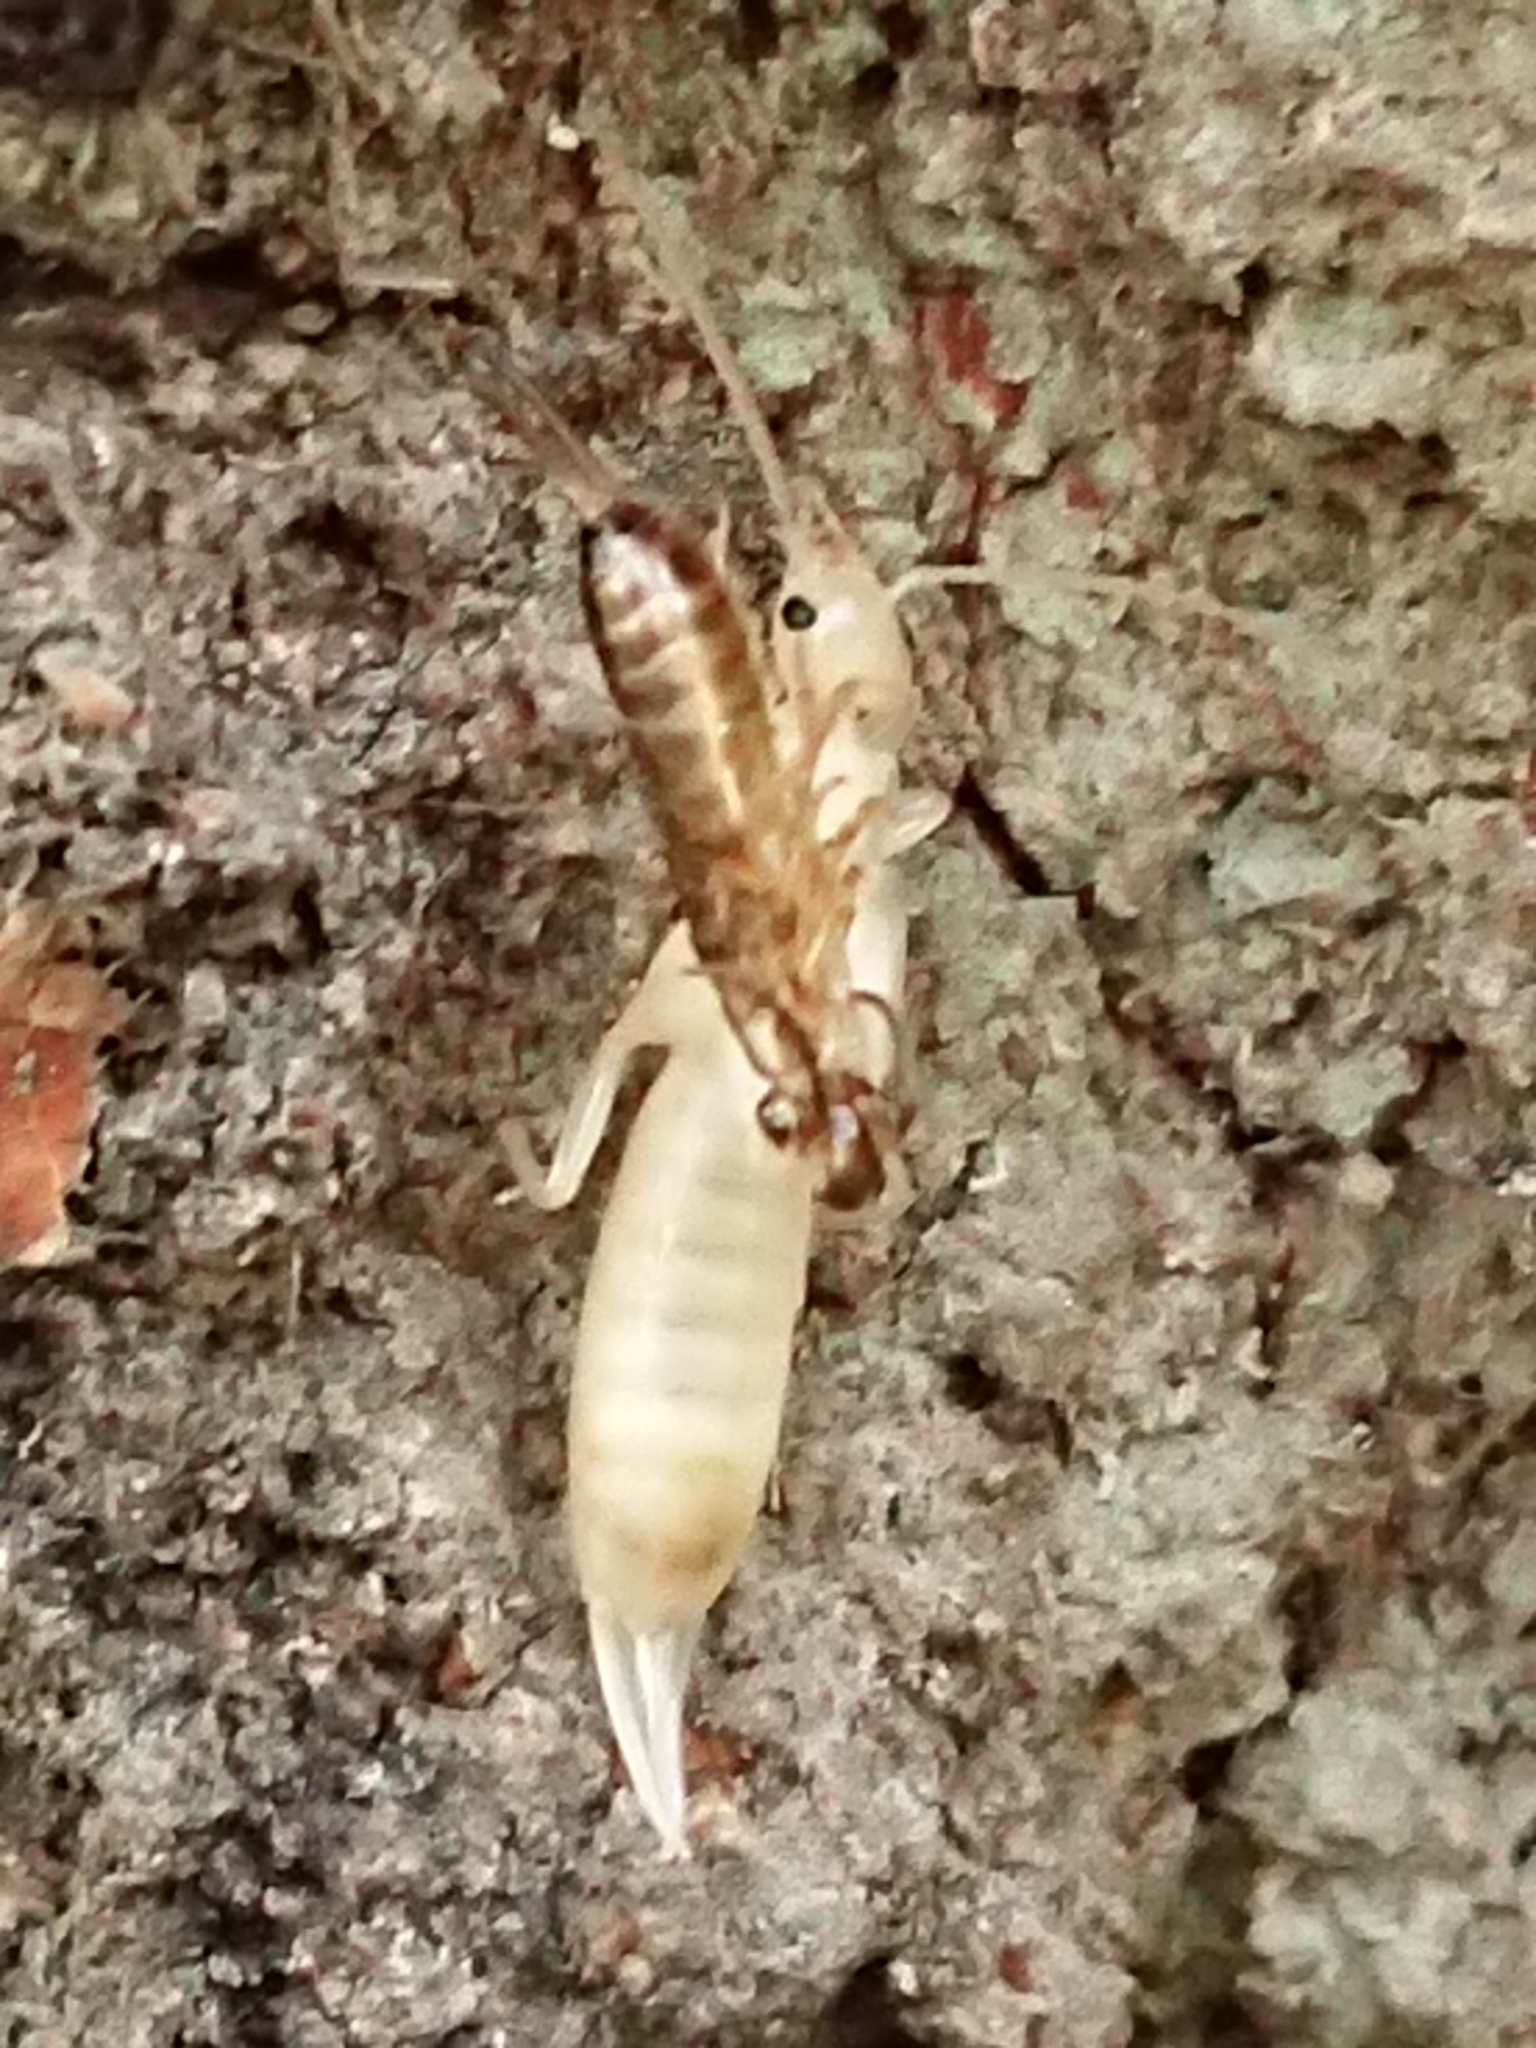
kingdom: Animalia
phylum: Arthropoda
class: Insecta
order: Dermaptera
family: Forficulidae
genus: Forficula
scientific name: Forficula
